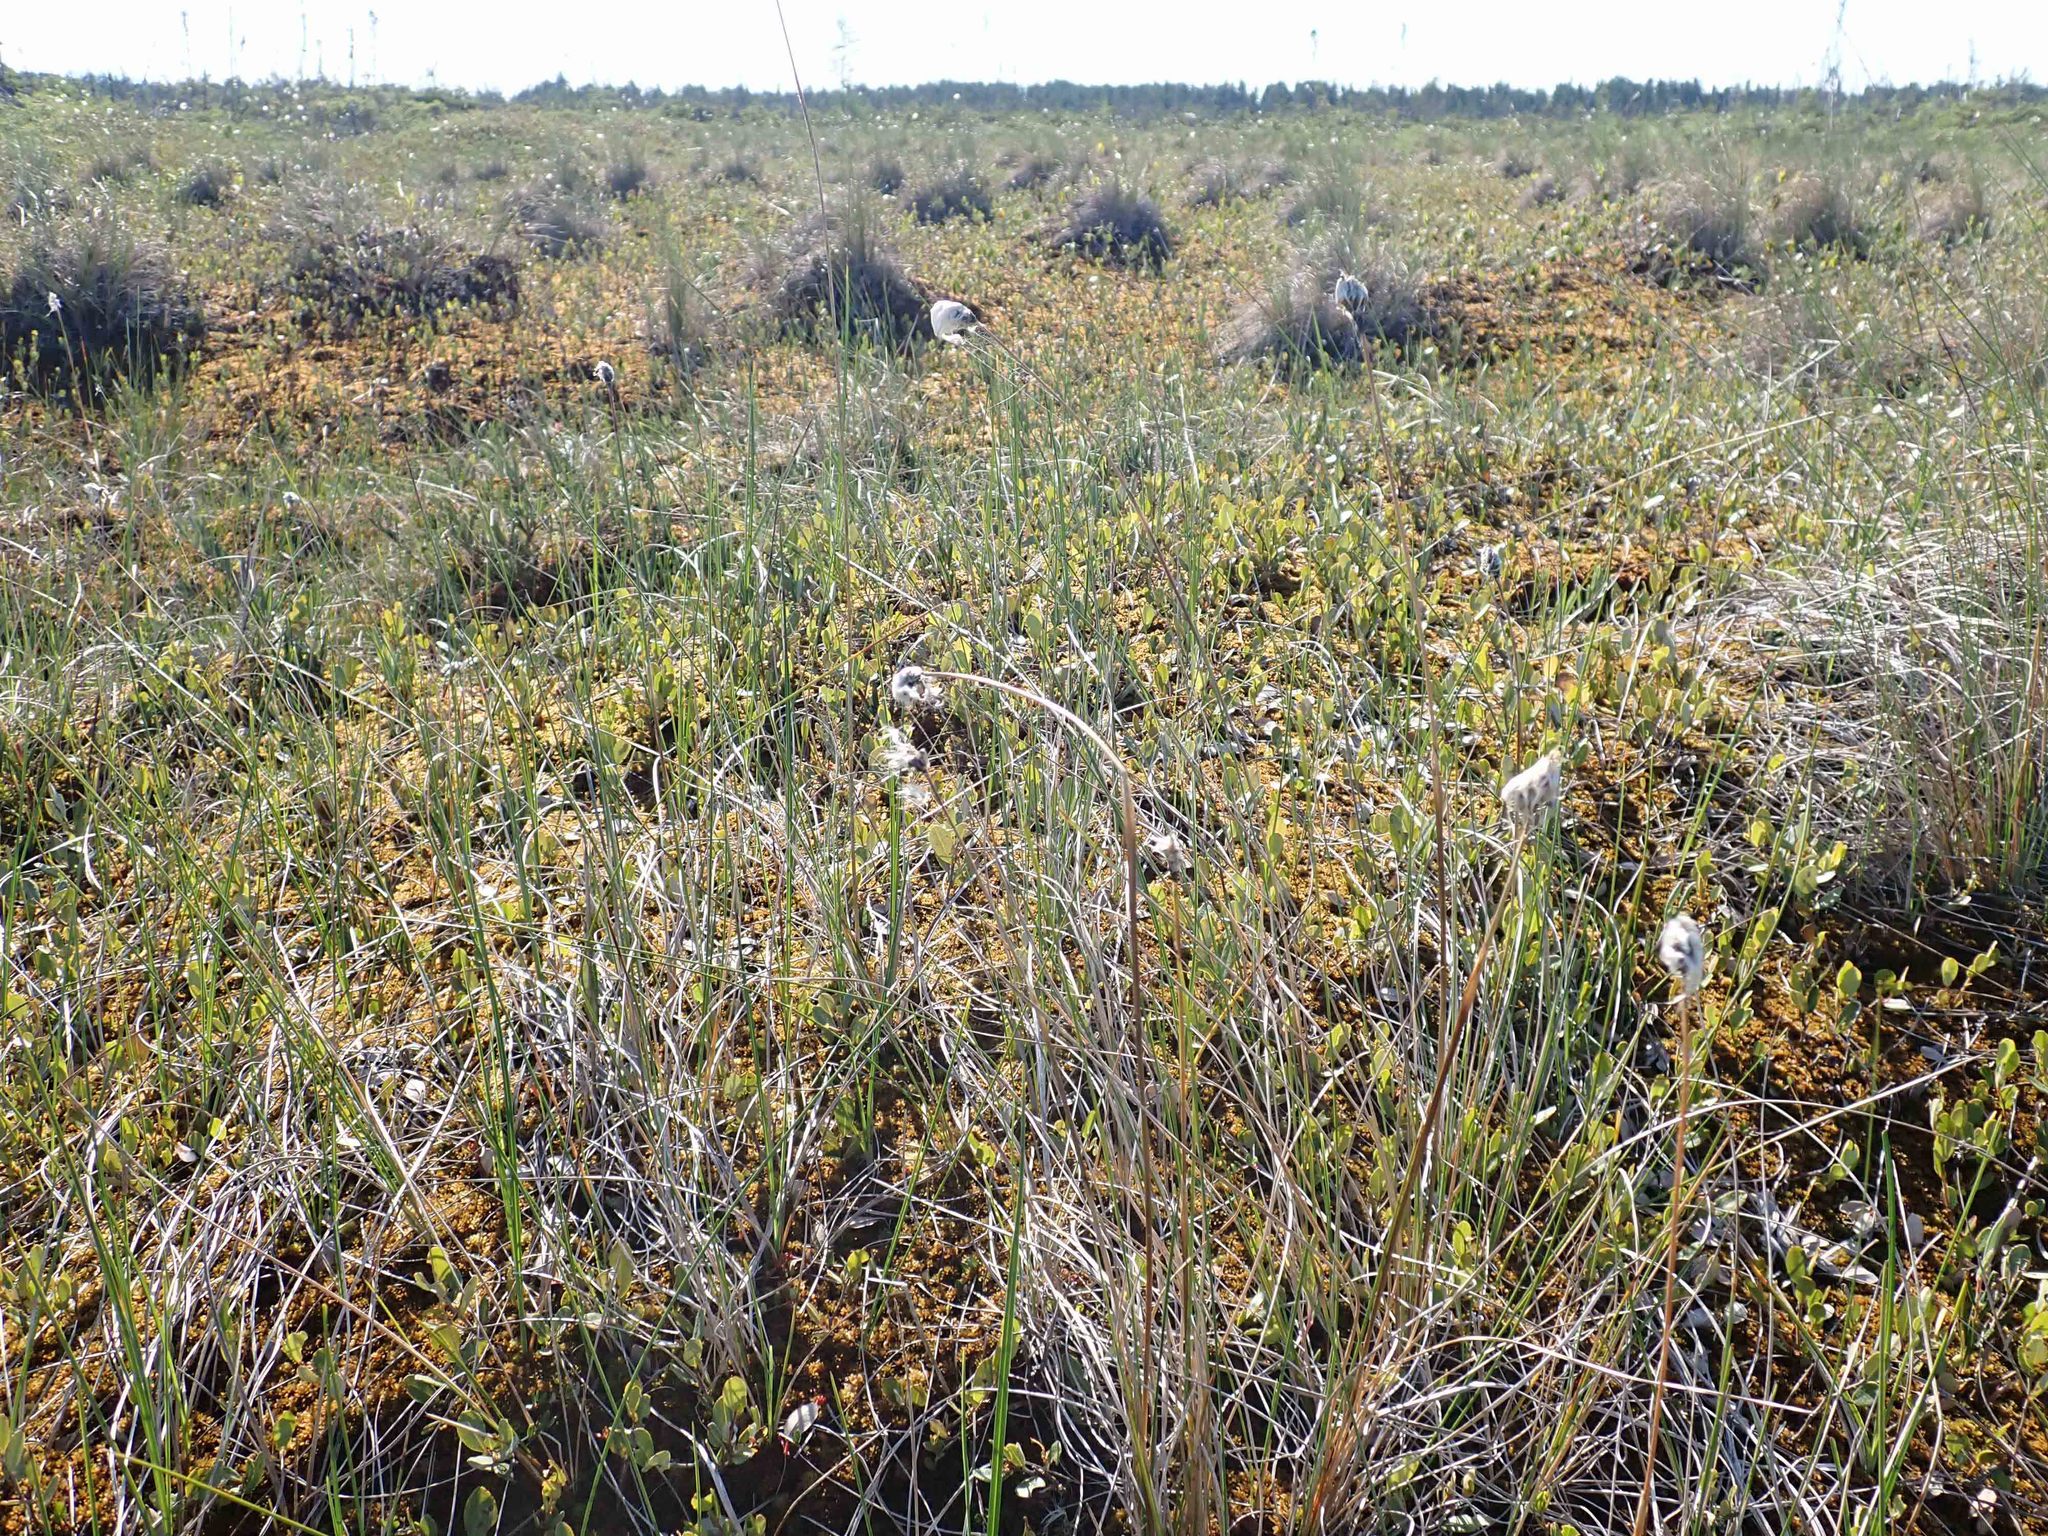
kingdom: Plantae
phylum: Tracheophyta
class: Liliopsida
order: Poales
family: Cyperaceae
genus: Eriophorum
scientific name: Eriophorum vaginatum
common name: Hare's-tail cottongrass
